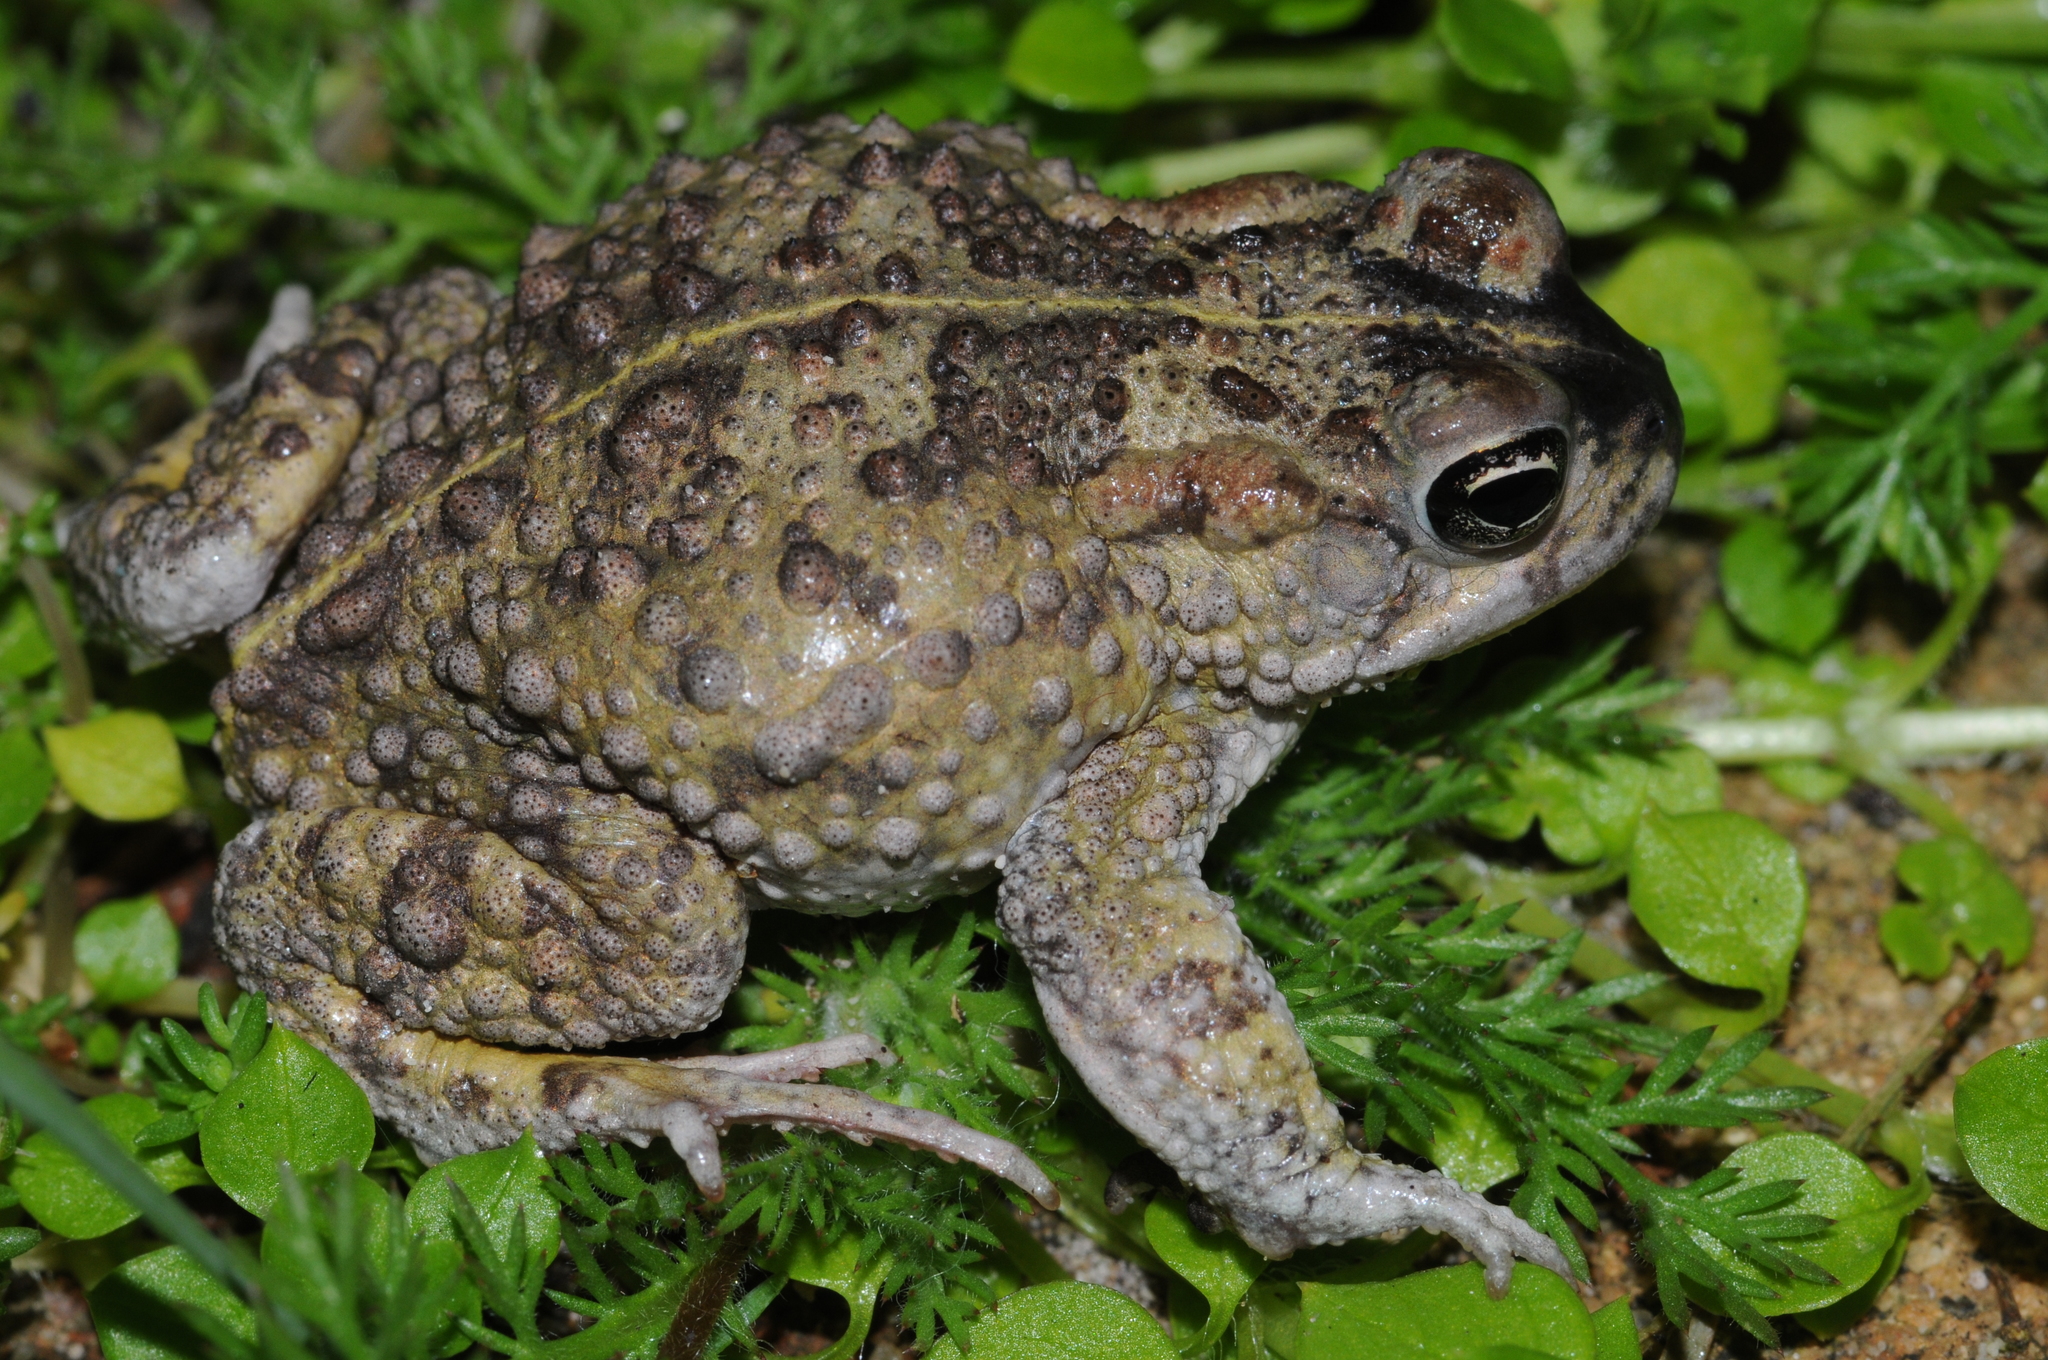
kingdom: Animalia
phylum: Chordata
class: Amphibia
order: Anura
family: Bufonidae
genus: Vandijkophrynus
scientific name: Vandijkophrynus angusticeps
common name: Sand toad
